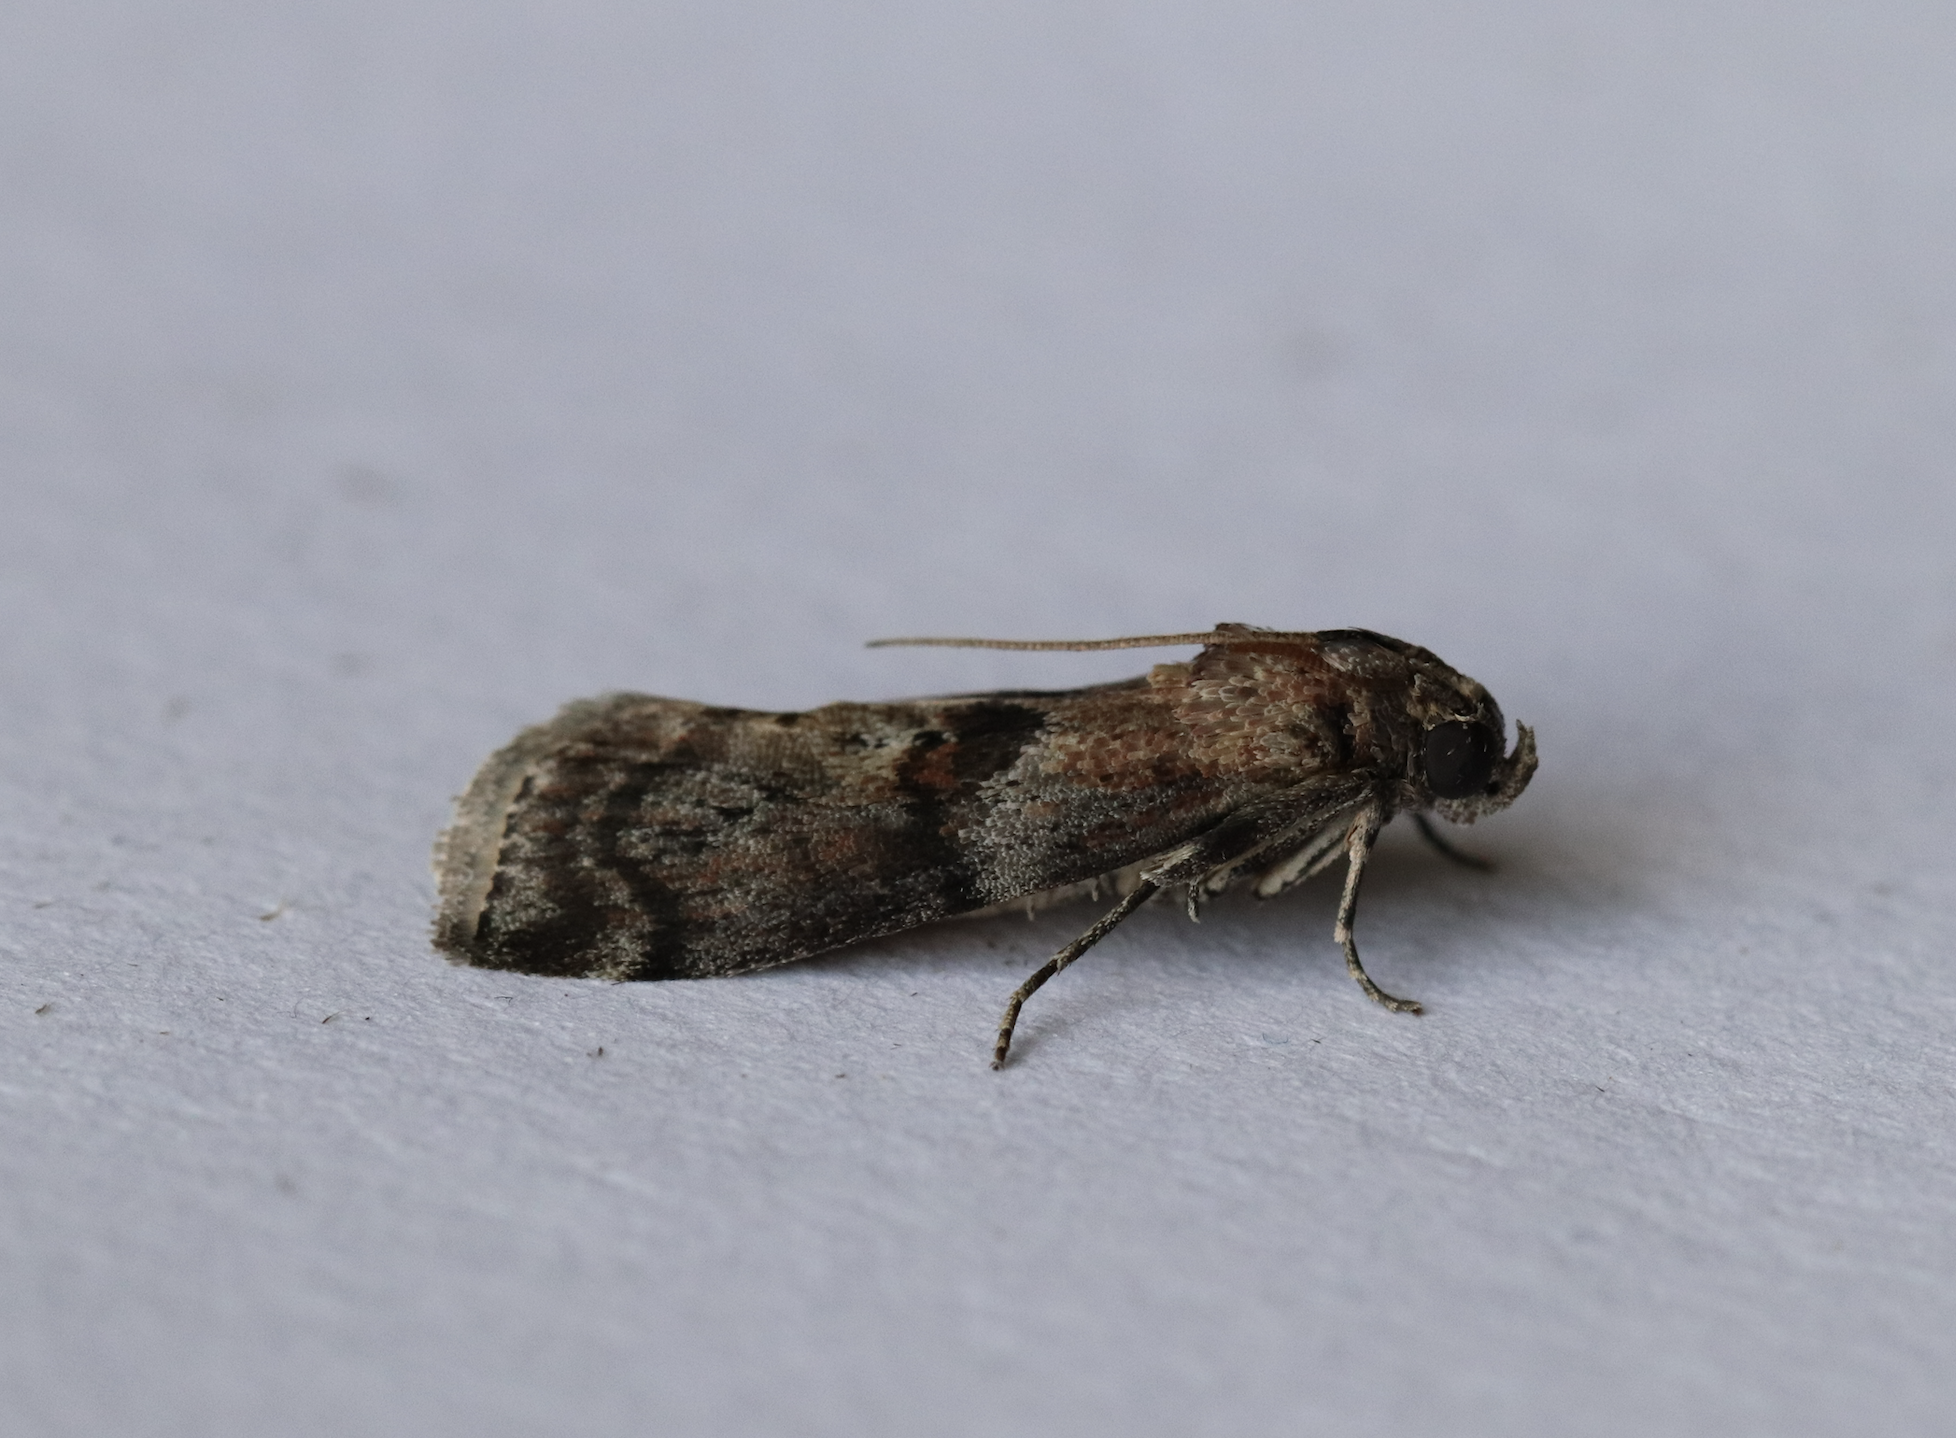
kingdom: Animalia
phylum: Arthropoda
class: Insecta
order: Lepidoptera
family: Pyralidae
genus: Phycita
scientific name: Phycita roborella
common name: Dotted oak knot-horn
